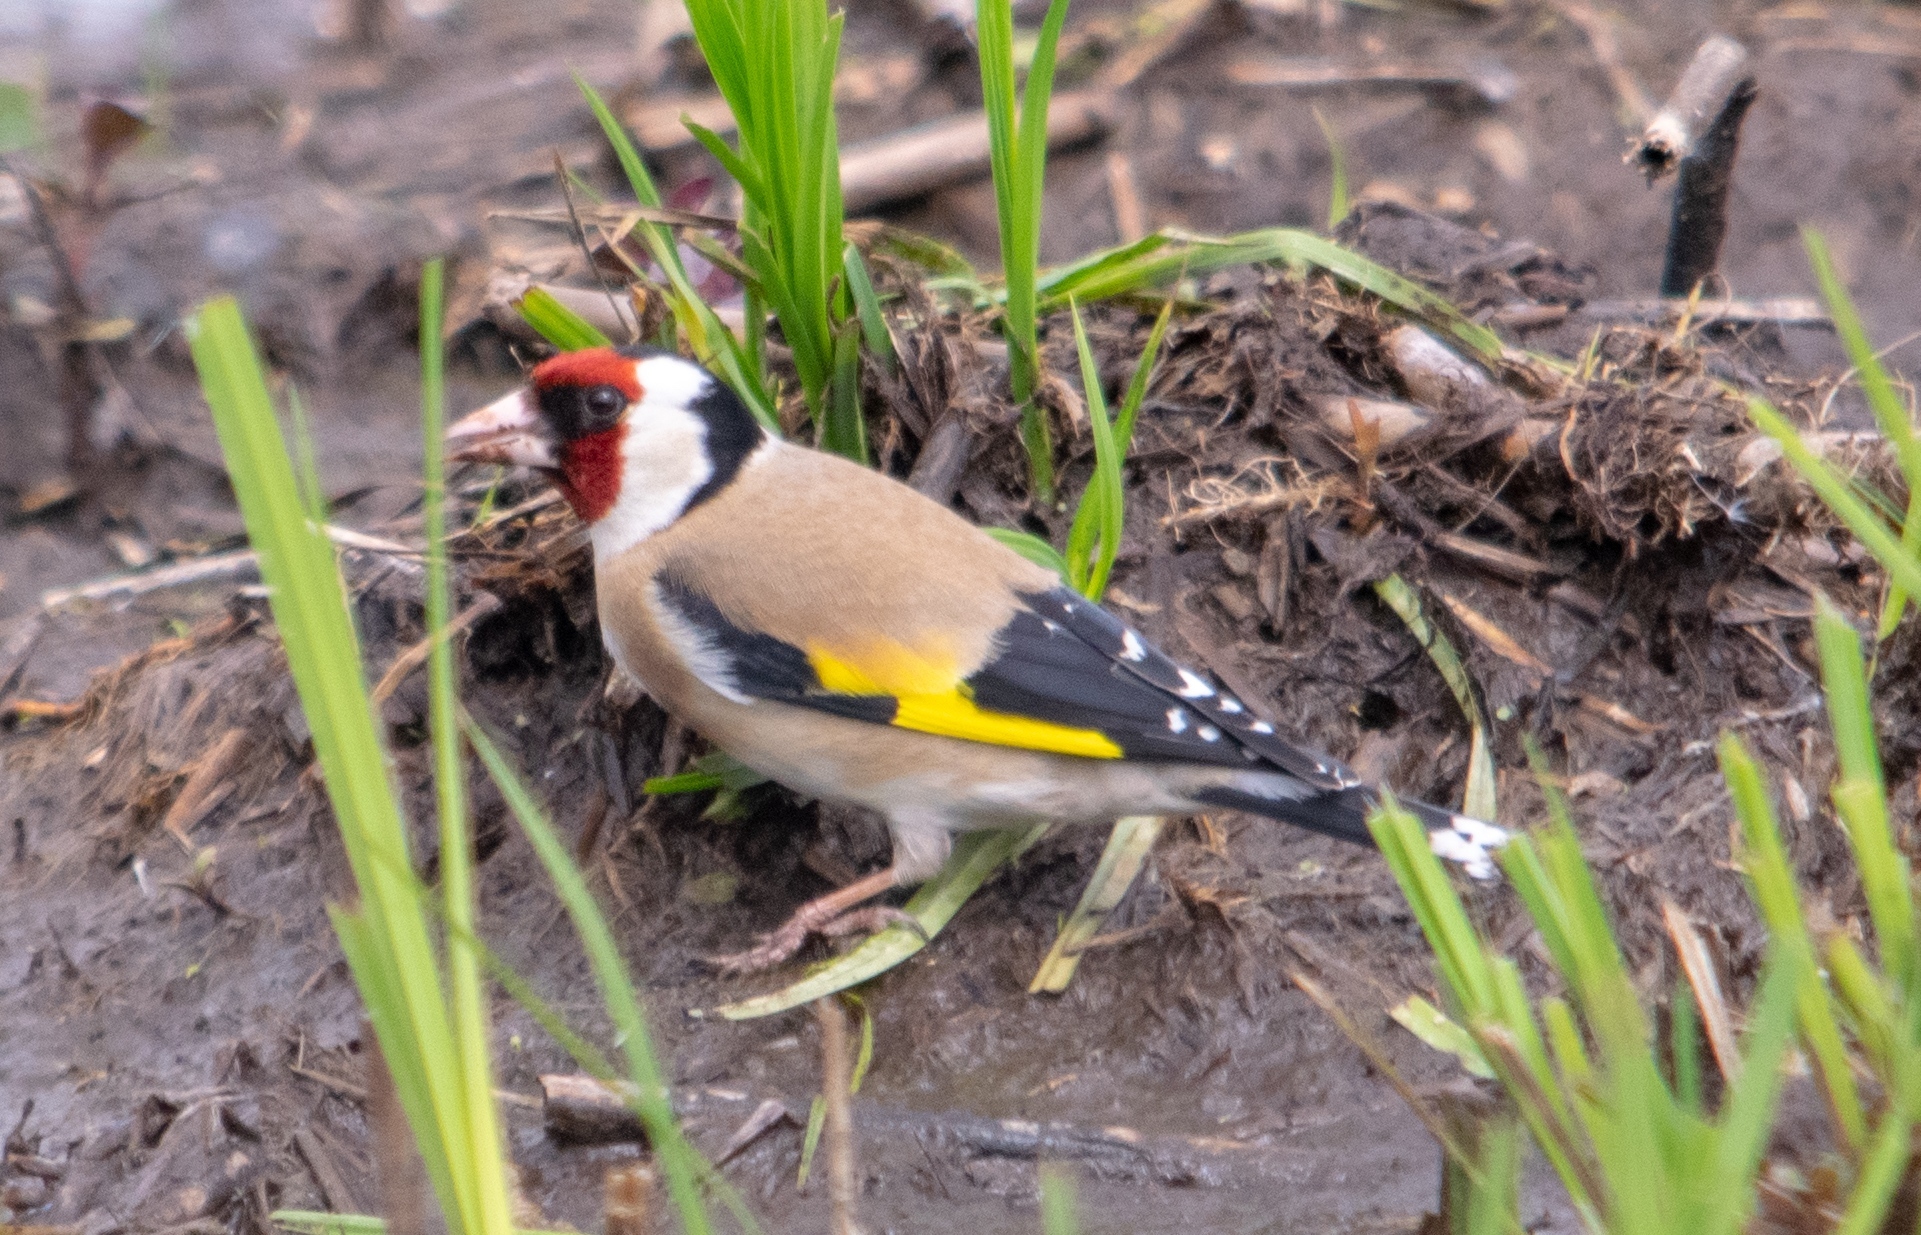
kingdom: Animalia
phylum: Chordata
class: Aves
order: Passeriformes
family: Fringillidae
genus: Carduelis
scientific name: Carduelis carduelis
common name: European goldfinch
